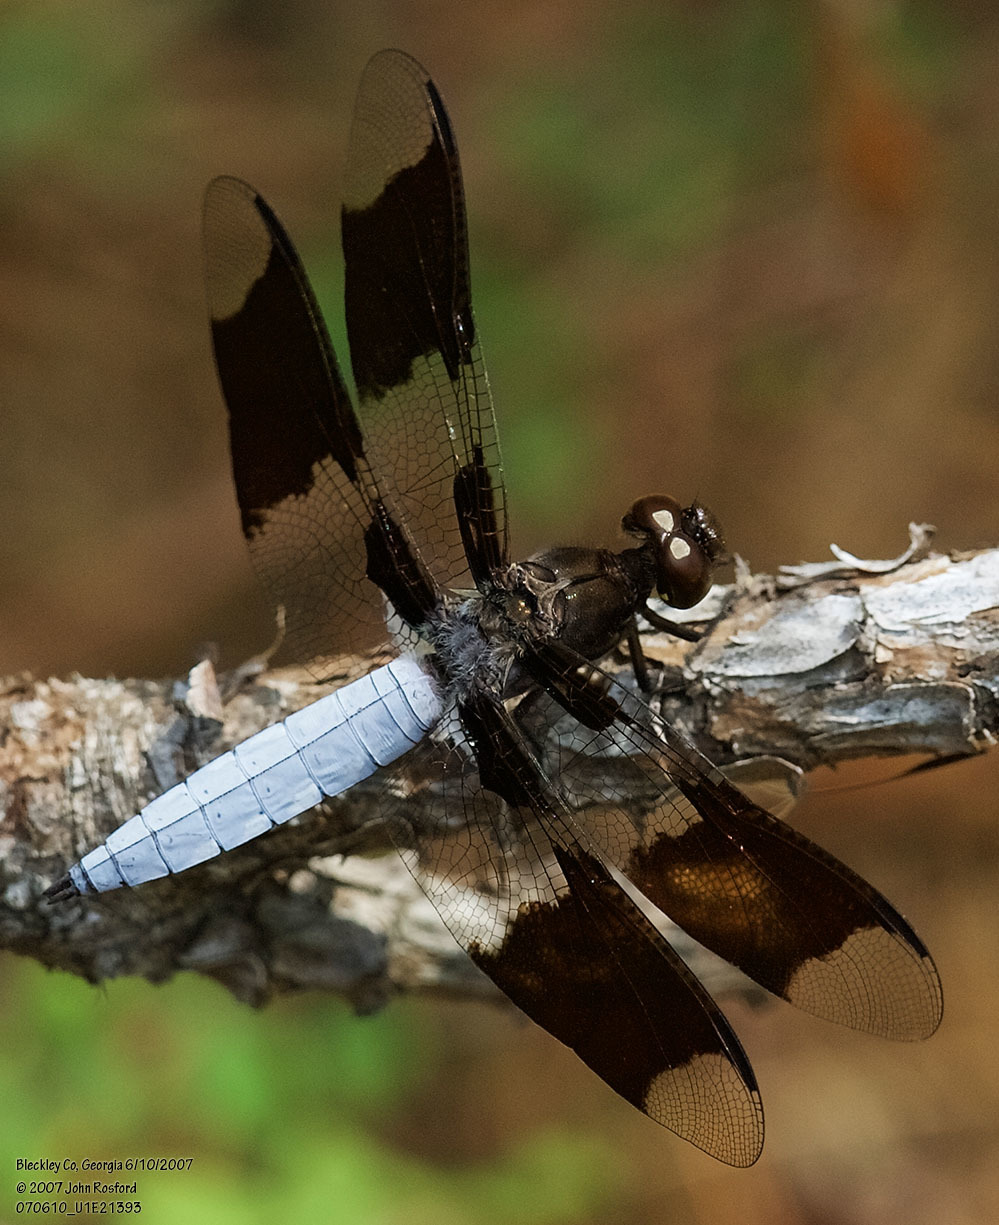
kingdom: Animalia
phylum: Arthropoda
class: Insecta
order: Odonata
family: Libellulidae
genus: Plathemis
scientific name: Plathemis lydia
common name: Common whitetail
